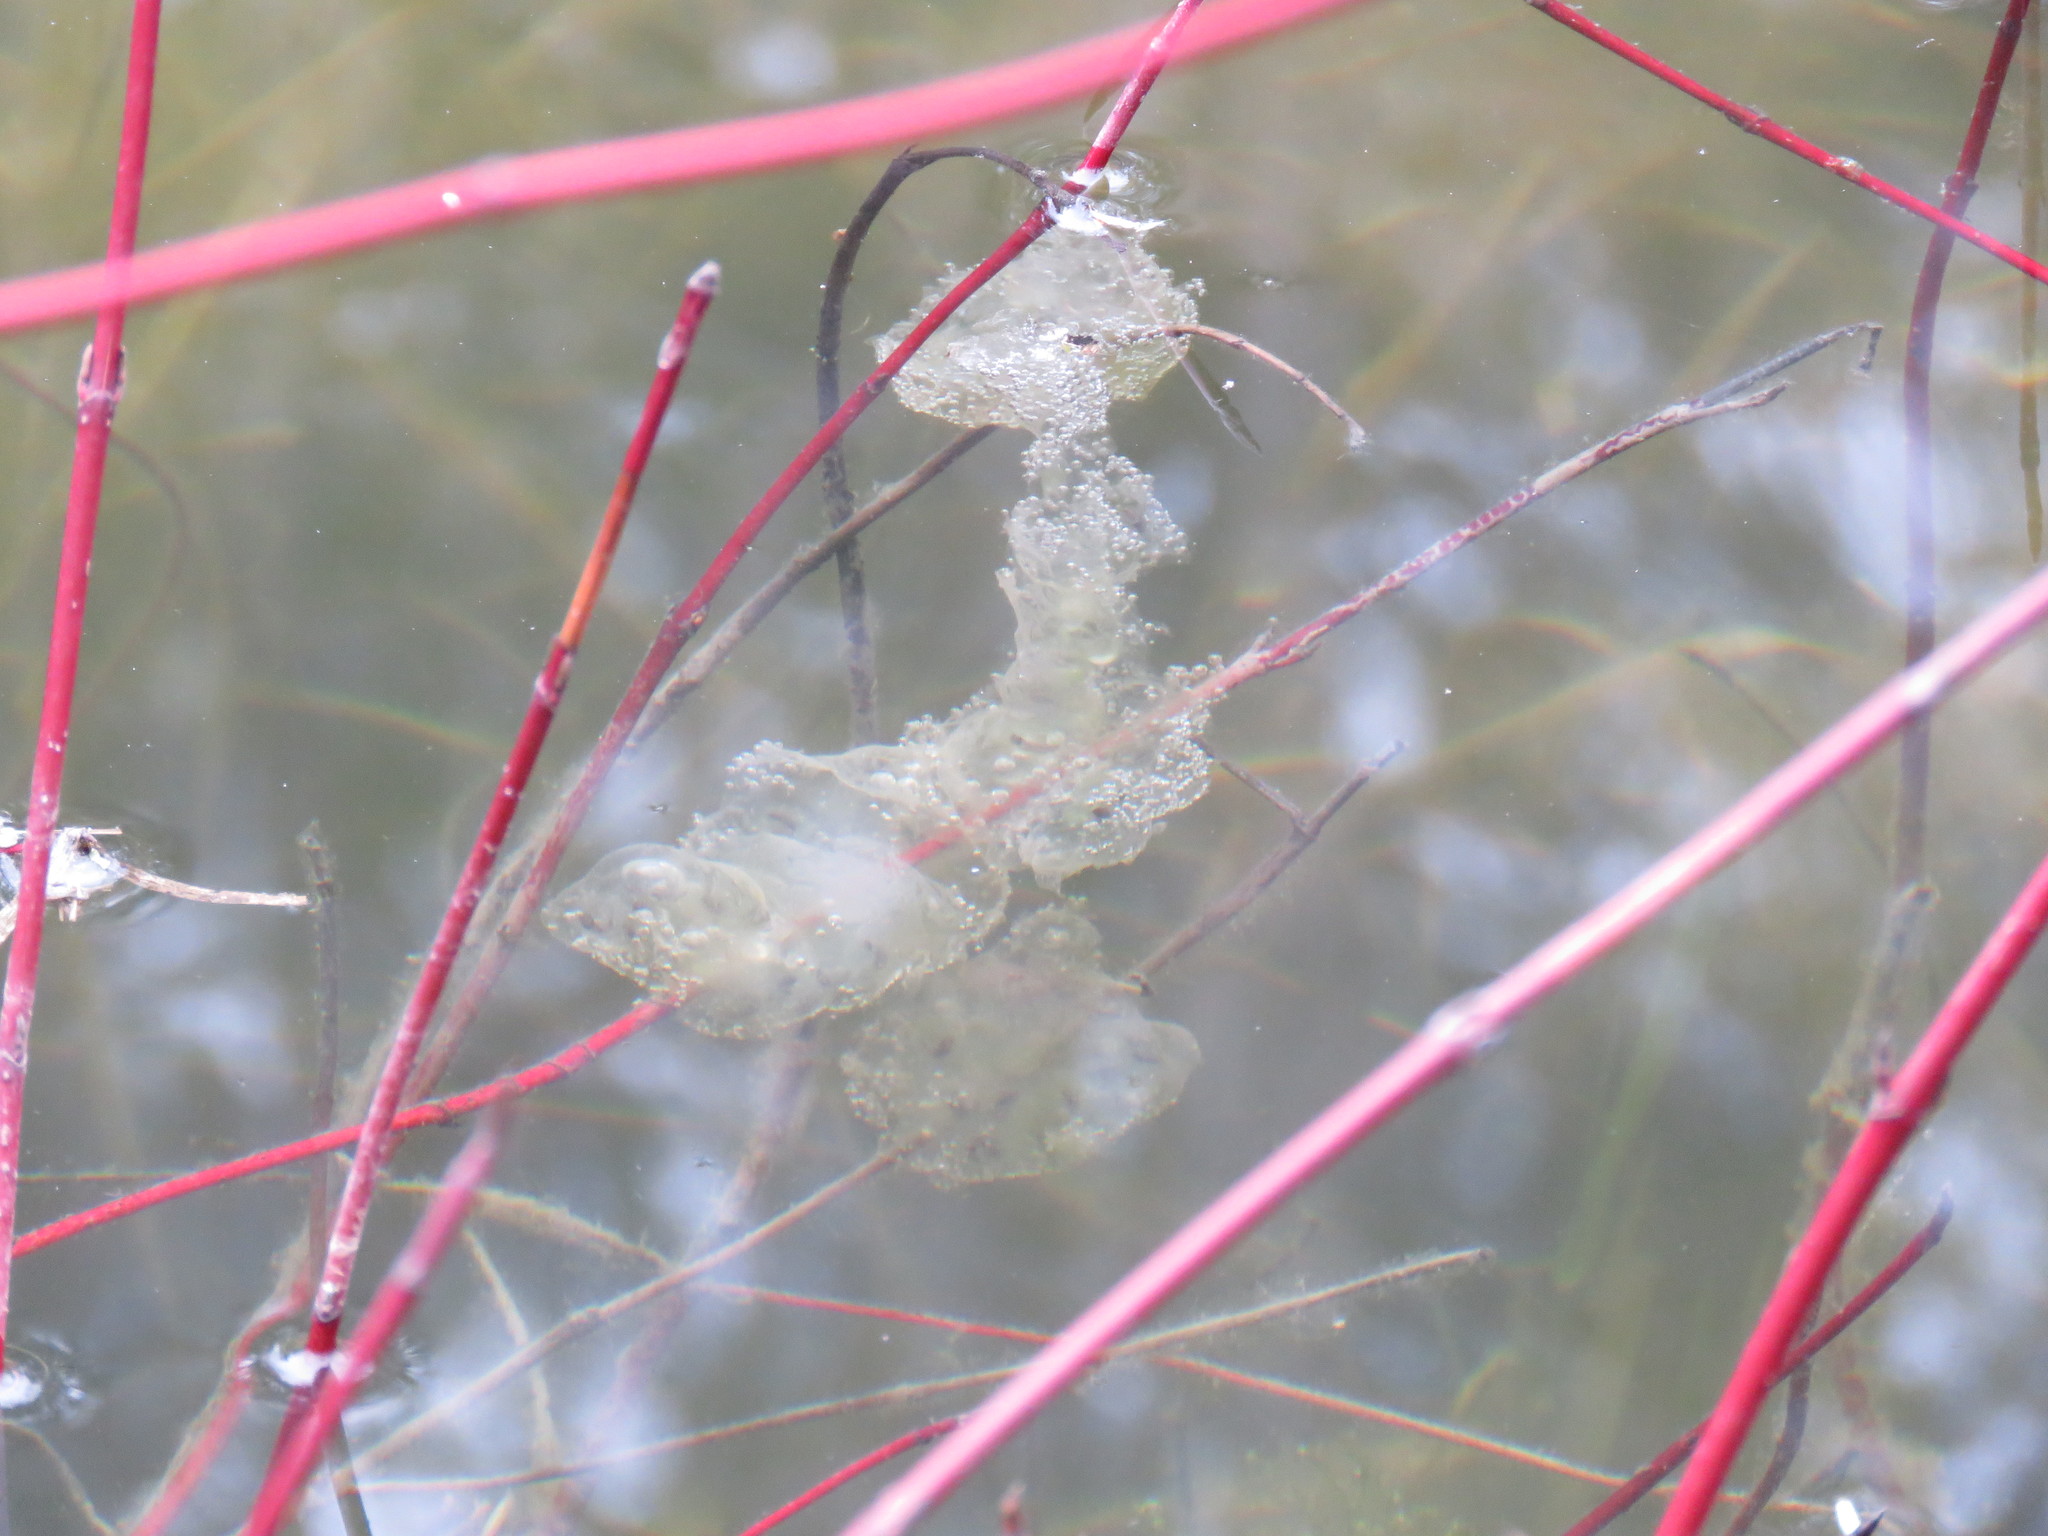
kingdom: Animalia
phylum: Chordata
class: Amphibia
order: Caudata
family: Ambystomatidae
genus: Ambystoma
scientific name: Ambystoma maculatum
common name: Spotted salamander
